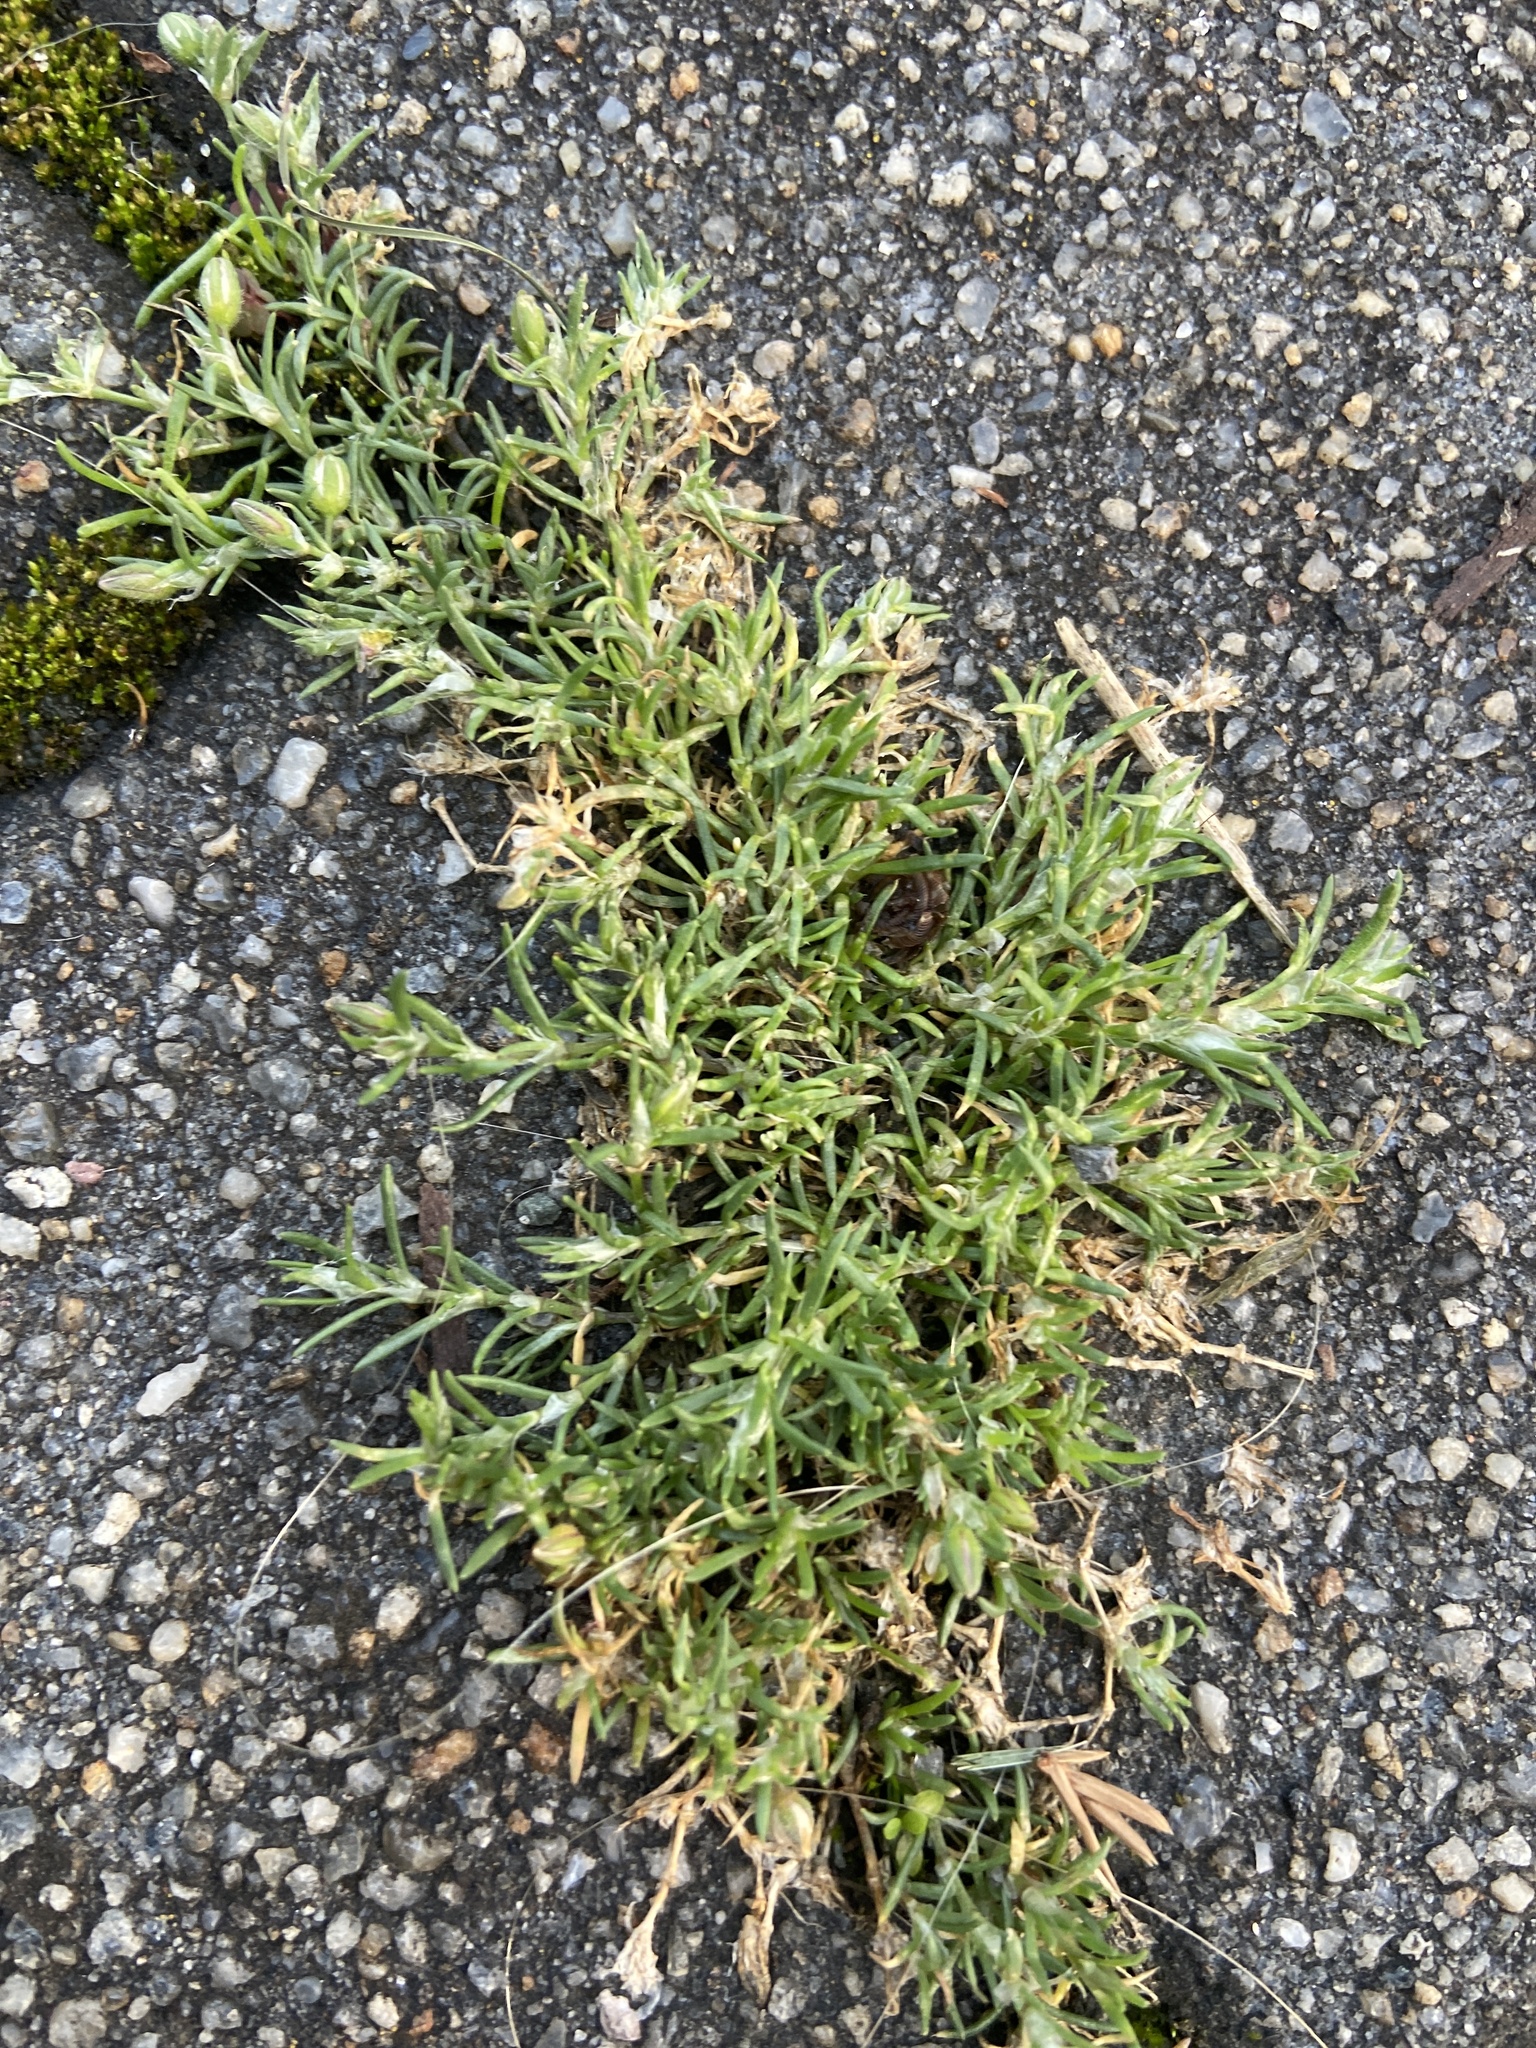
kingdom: Plantae
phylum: Tracheophyta
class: Magnoliopsida
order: Caryophyllales
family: Caryophyllaceae
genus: Spergularia
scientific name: Spergularia rubra
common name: Red sand-spurrey
